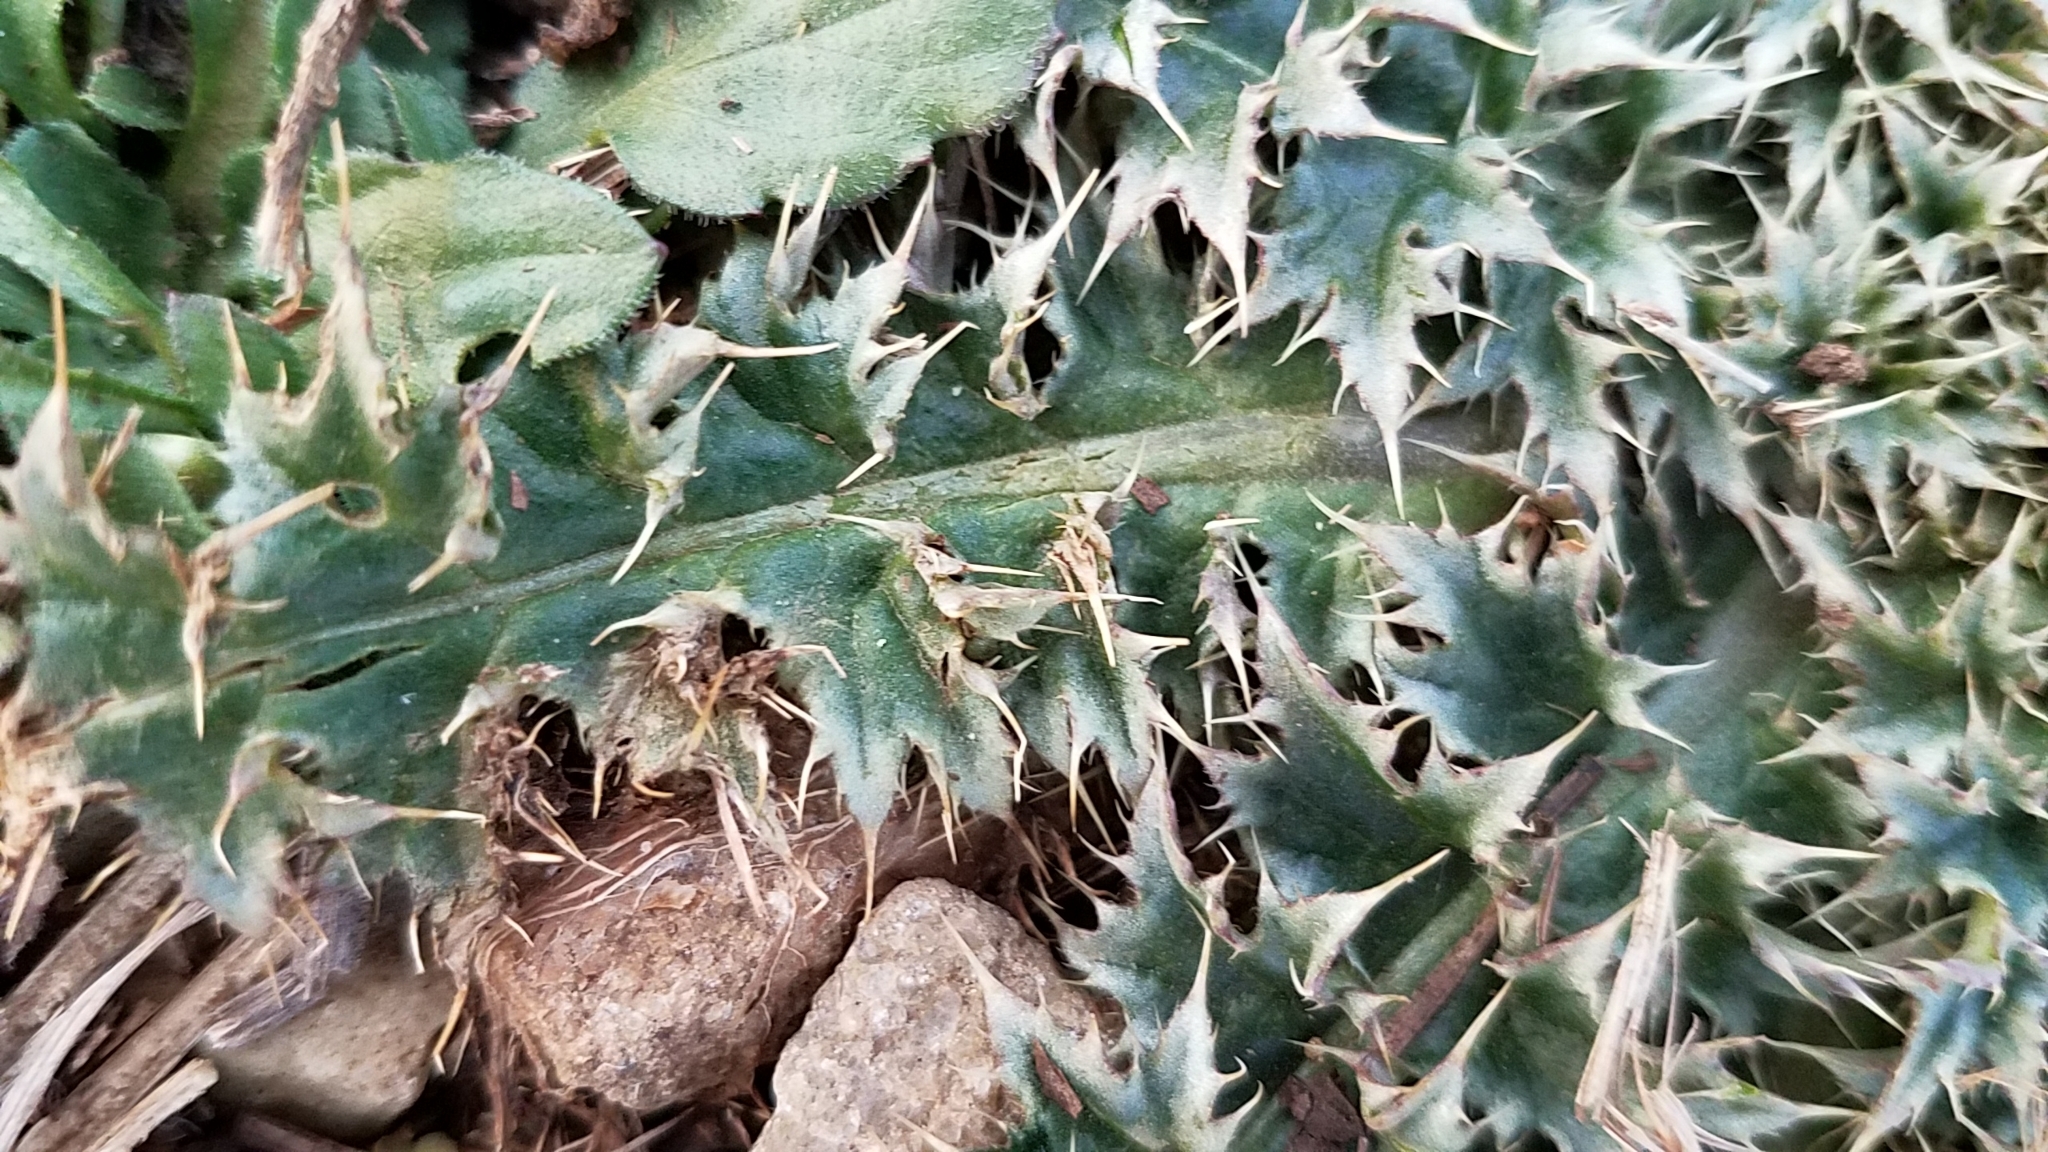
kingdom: Plantae
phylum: Tracheophyta
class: Magnoliopsida
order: Asterales
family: Asteraceae
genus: Carduus
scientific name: Carduus nutans
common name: Musk thistle
